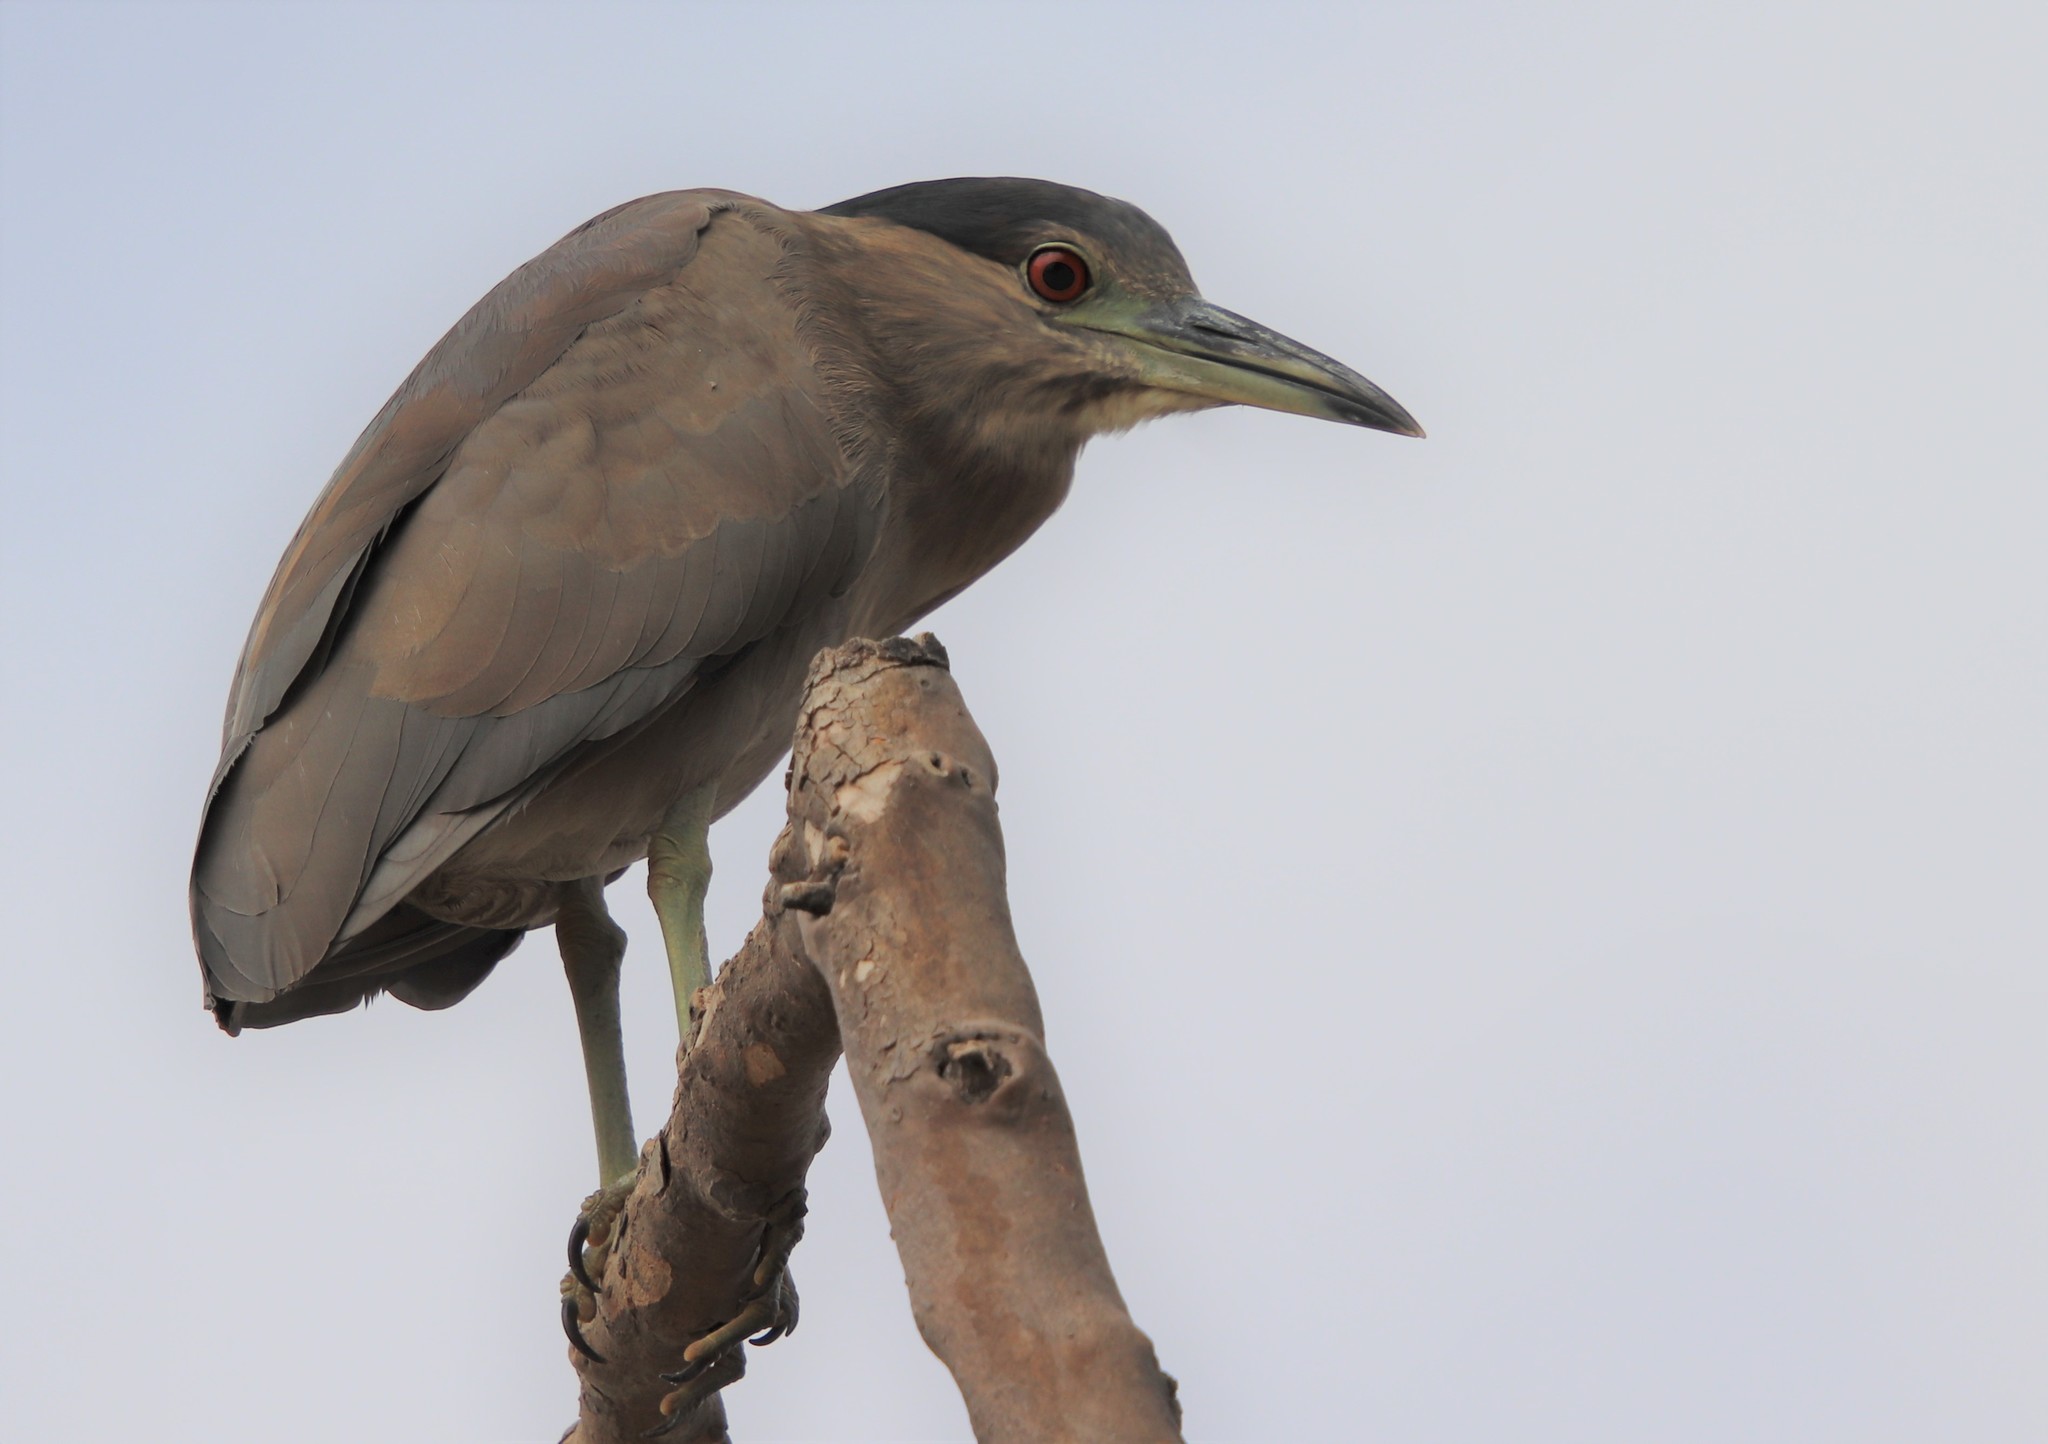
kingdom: Animalia
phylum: Chordata
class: Aves
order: Pelecaniformes
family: Ardeidae
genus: Nycticorax
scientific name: Nycticorax nycticorax
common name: Black-crowned night heron
